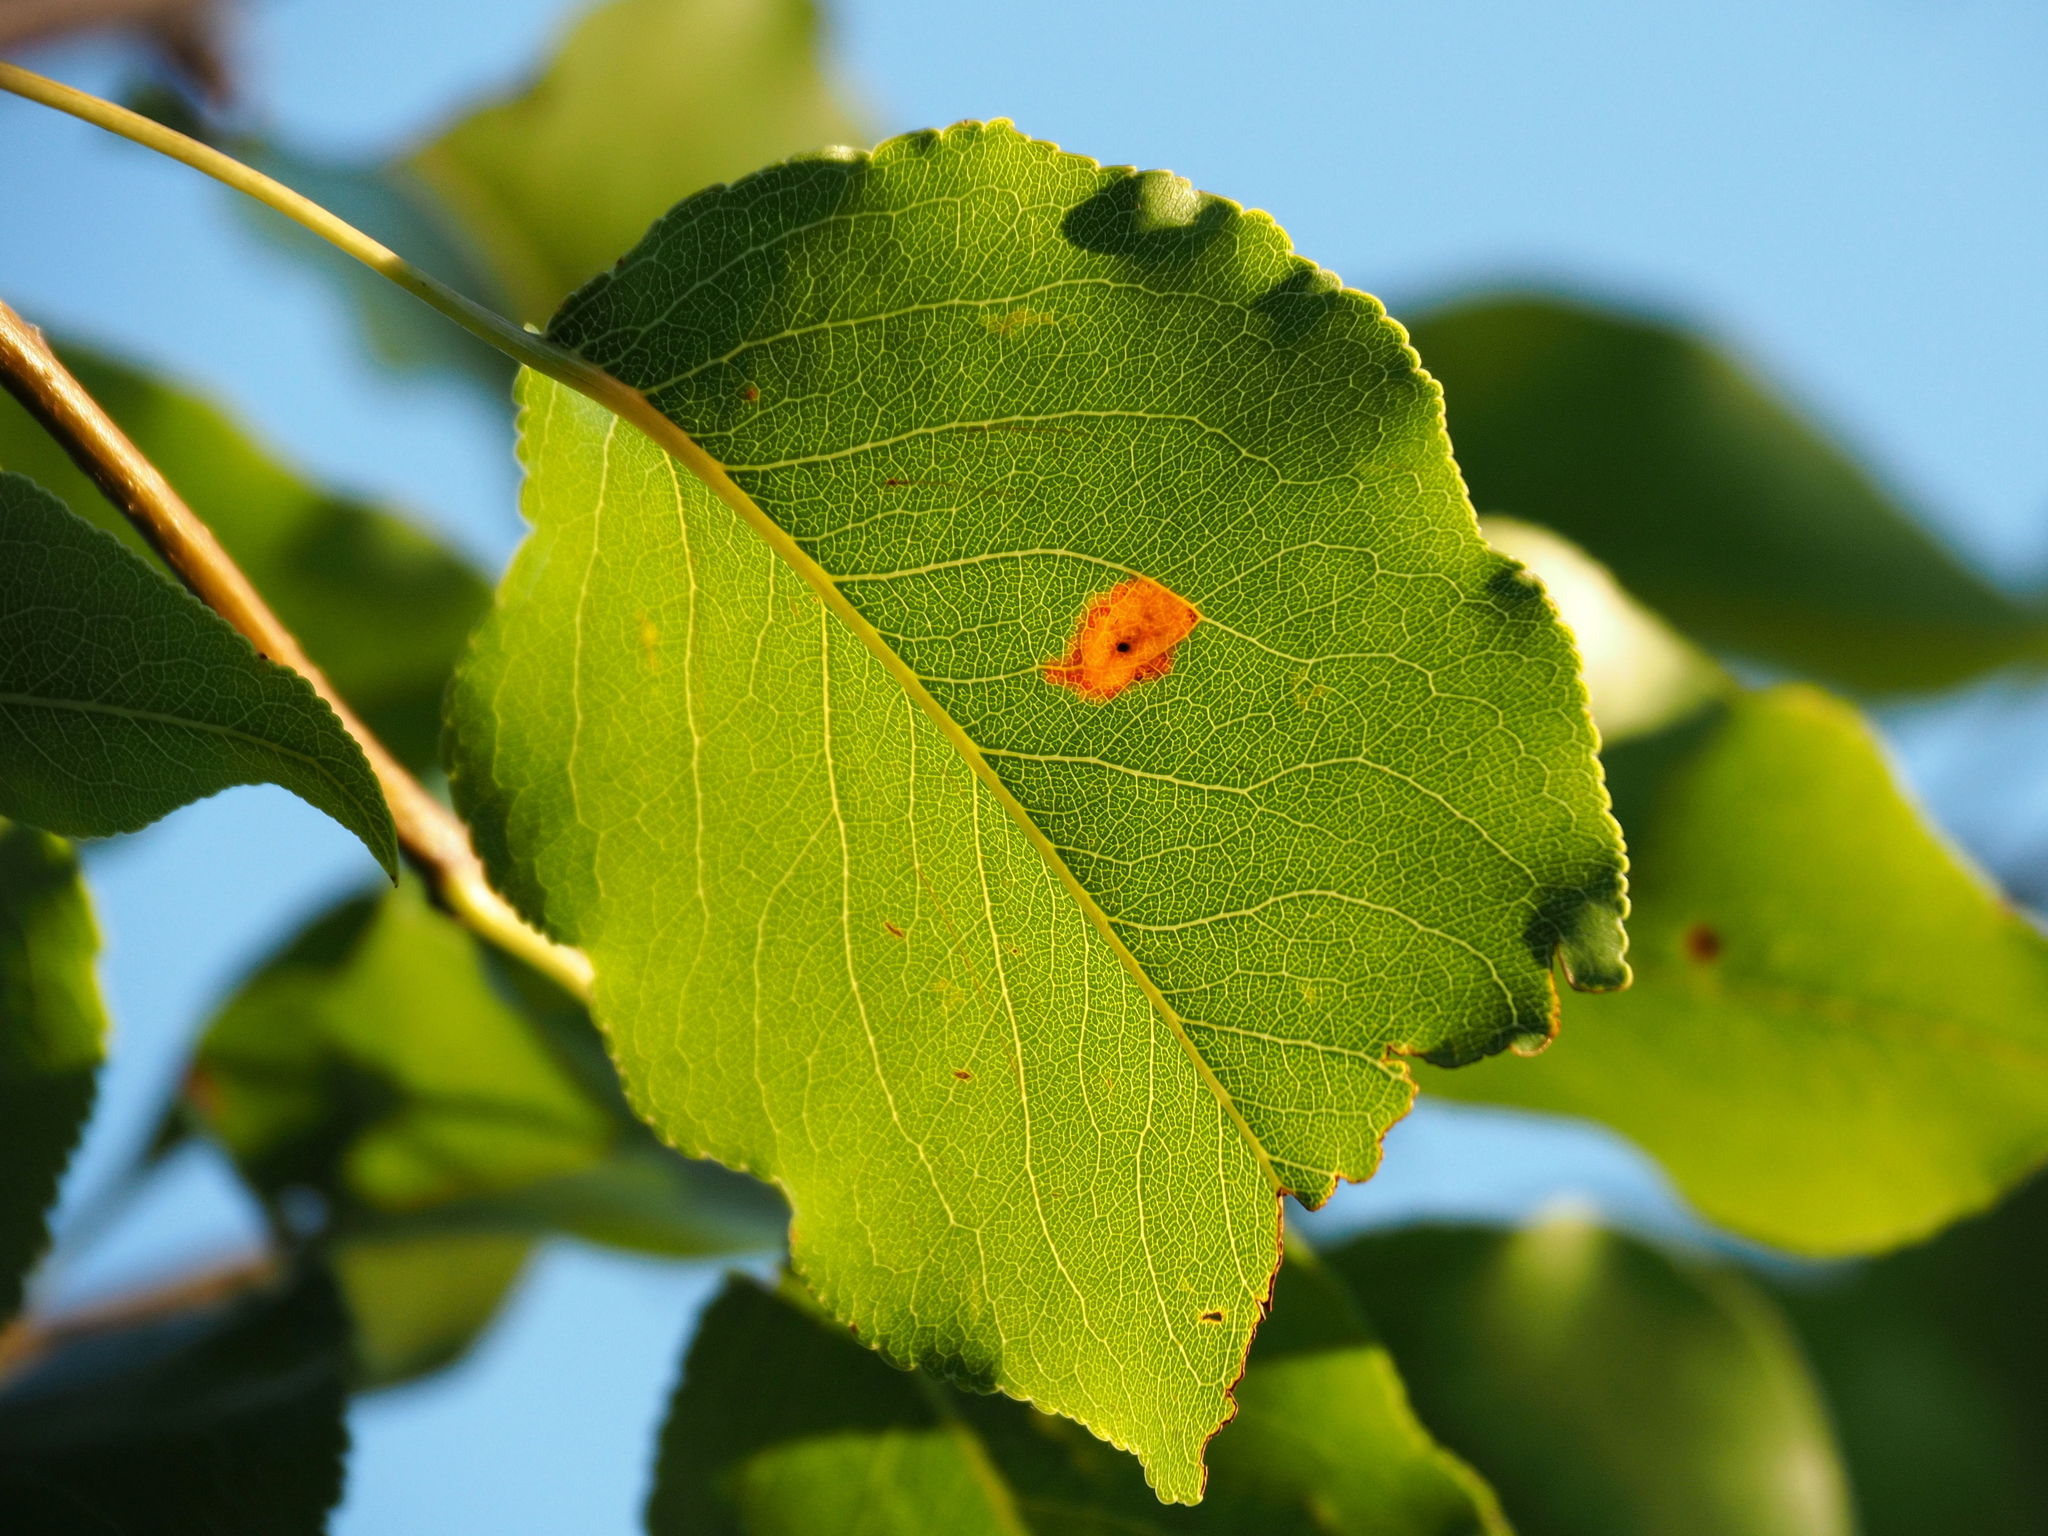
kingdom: Fungi
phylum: Basidiomycota
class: Pucciniomycetes
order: Pucciniales
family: Gymnosporangiaceae
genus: Gymnosporangium
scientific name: Gymnosporangium sabinae
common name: Pear trellis rust fungus
